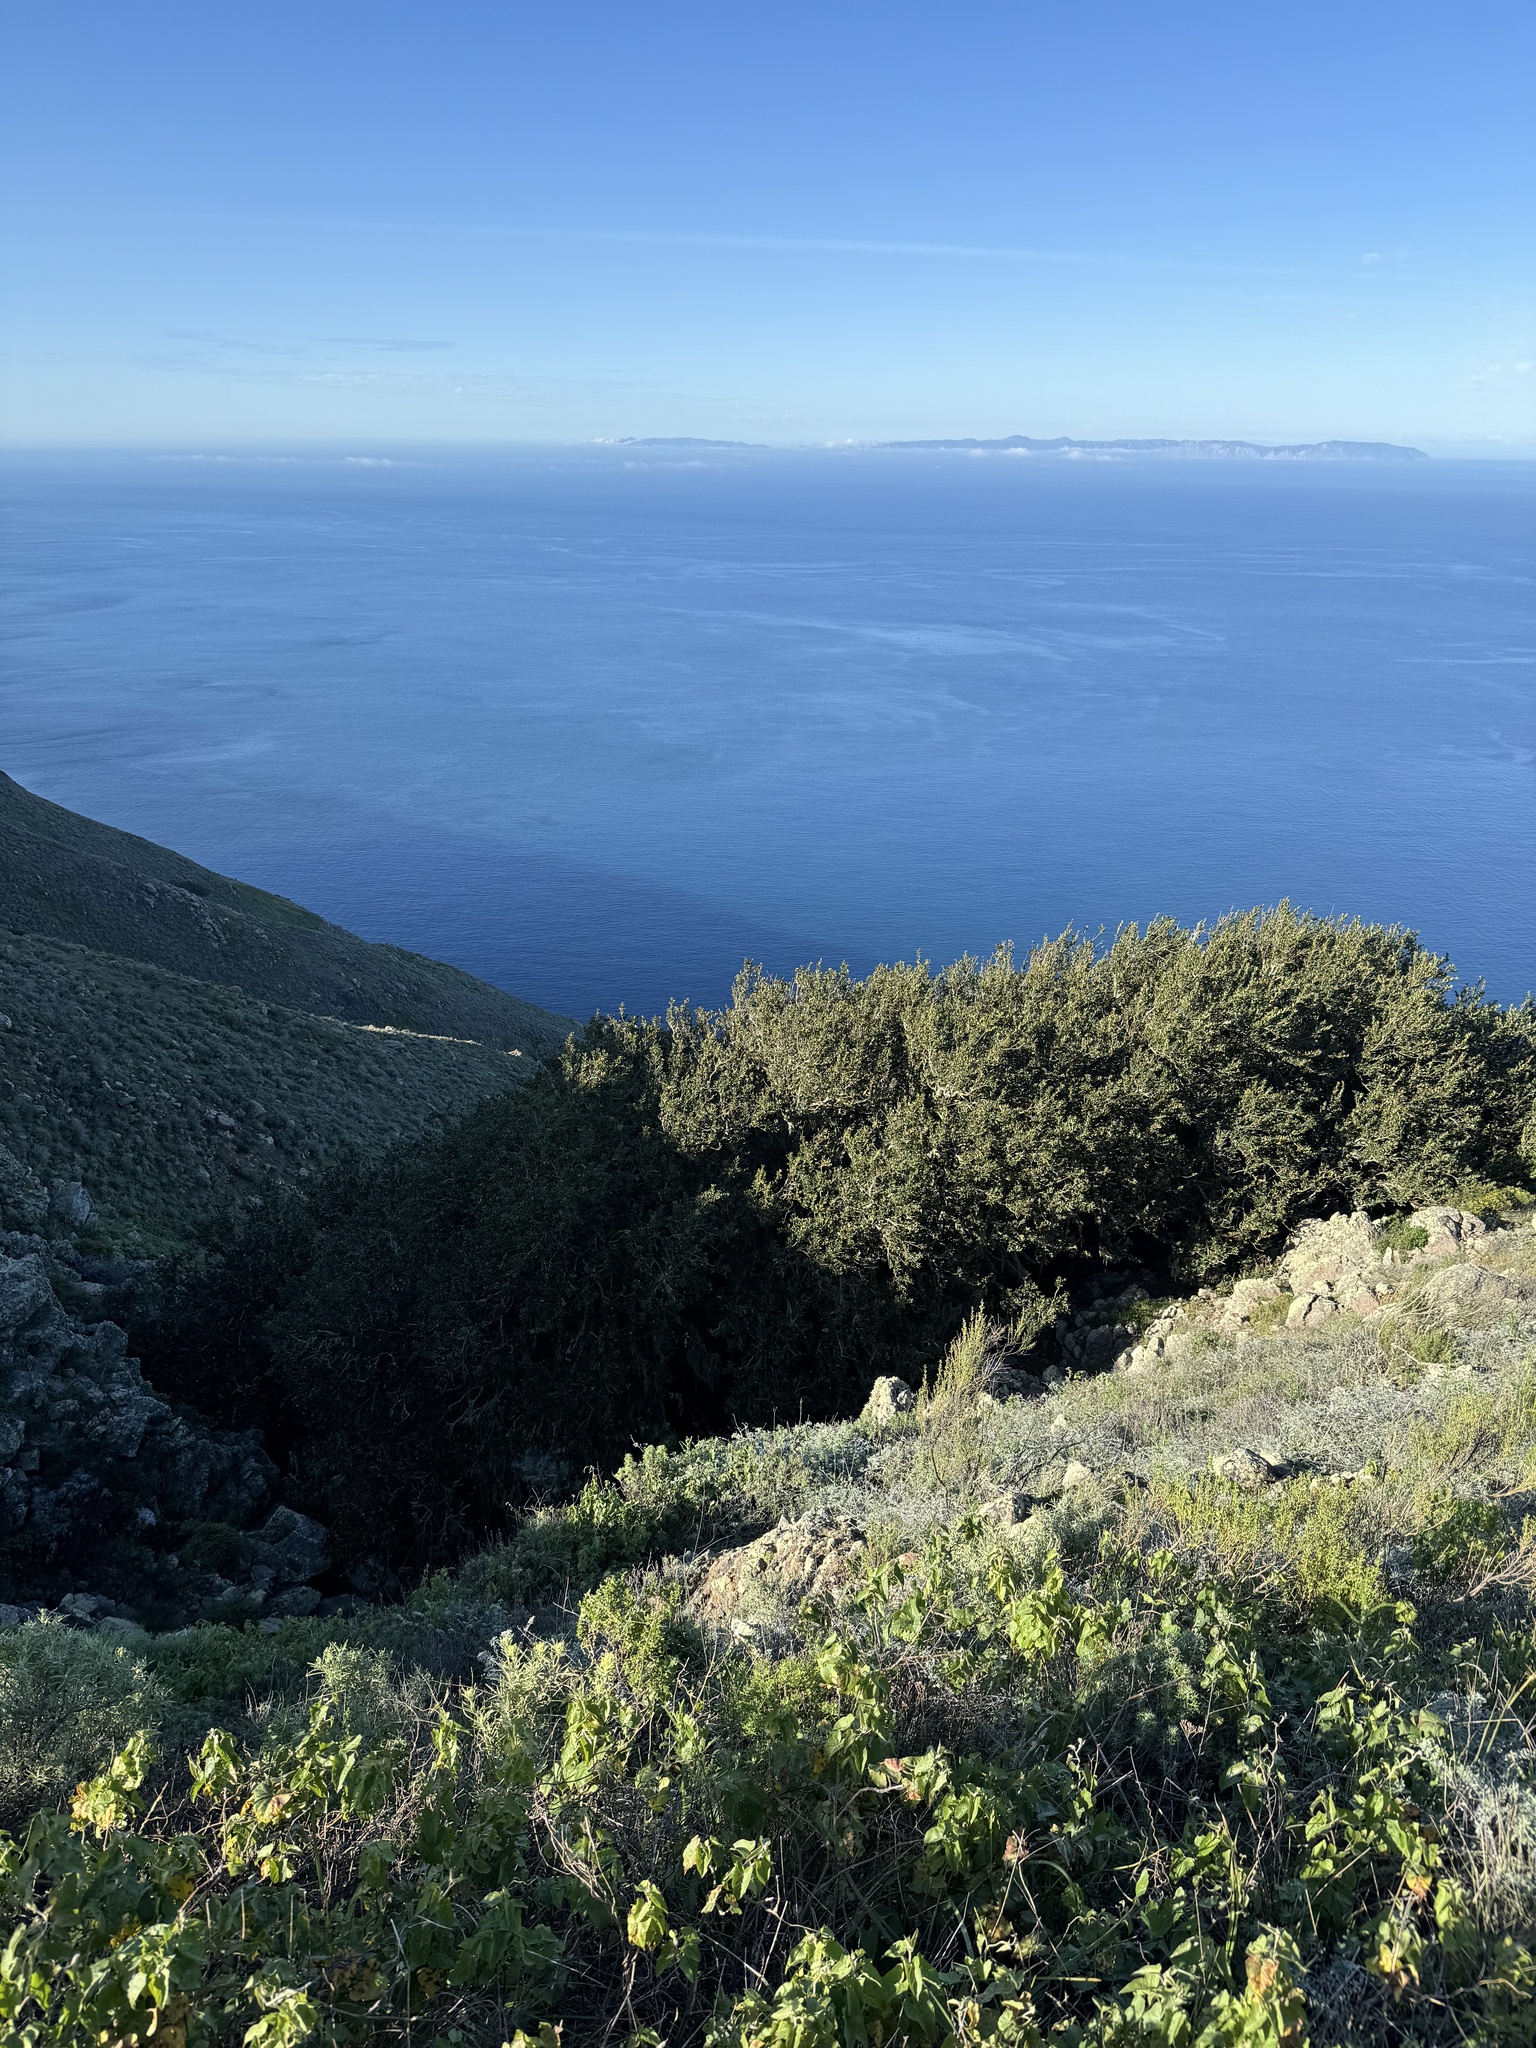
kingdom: Plantae
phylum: Tracheophyta
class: Magnoliopsida
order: Fagales
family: Fagaceae
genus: Quercus
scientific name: Quercus tomentella
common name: Island oak
